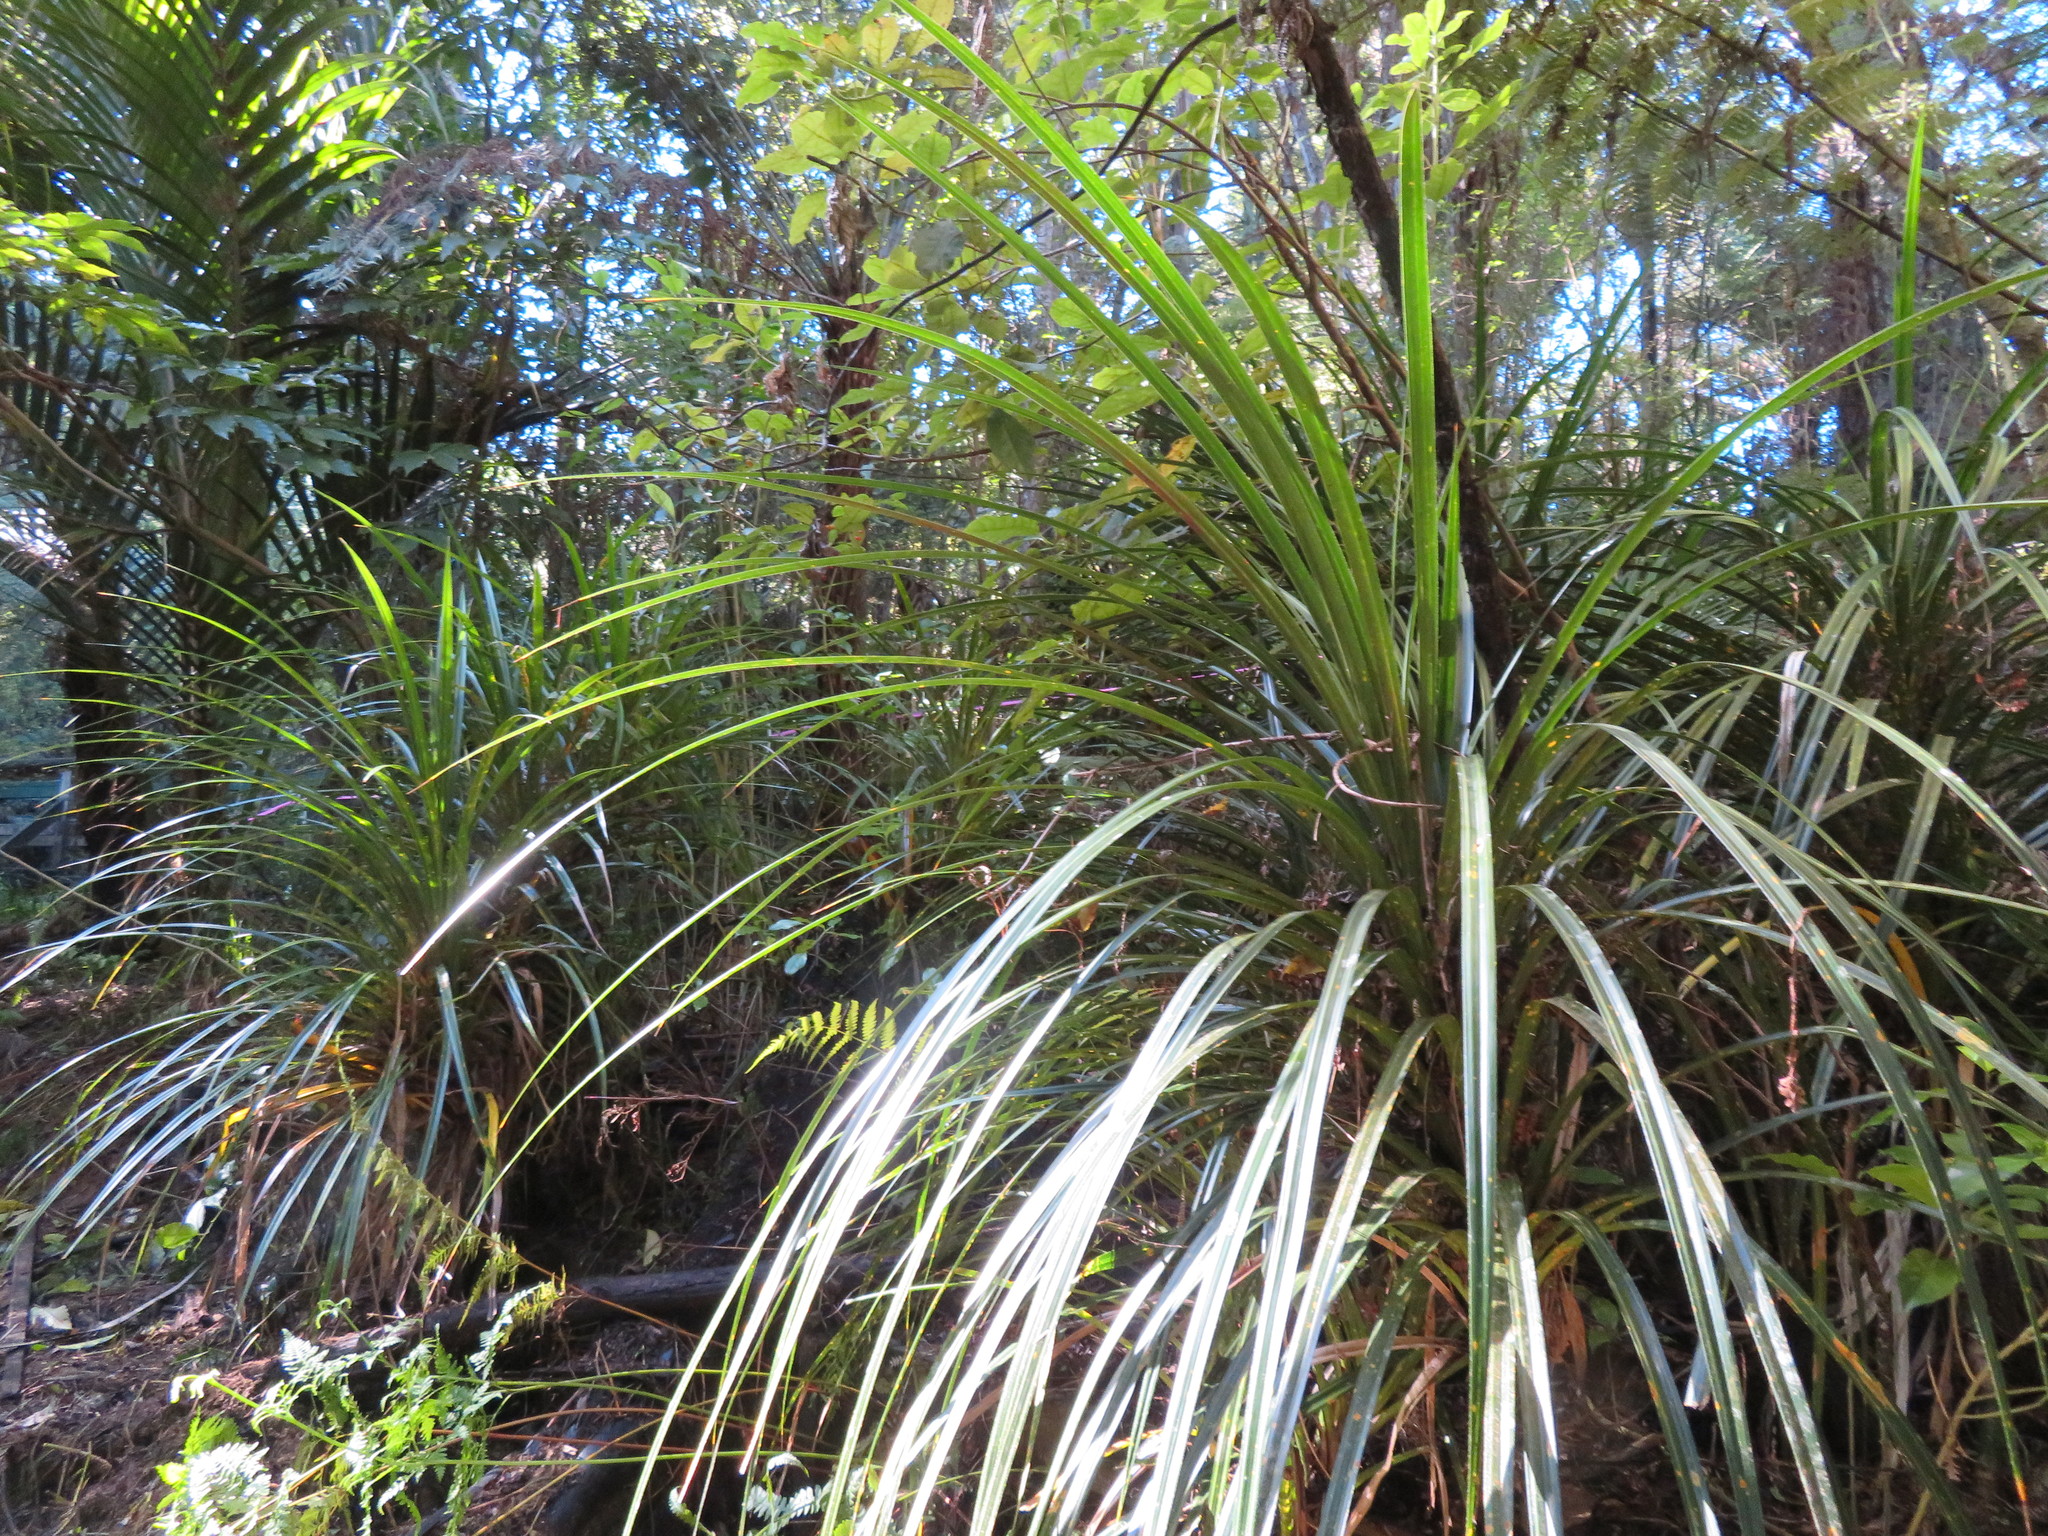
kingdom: Plantae
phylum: Tracheophyta
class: Liliopsida
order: Pandanales
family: Pandanaceae
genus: Freycinetia
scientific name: Freycinetia banksii
